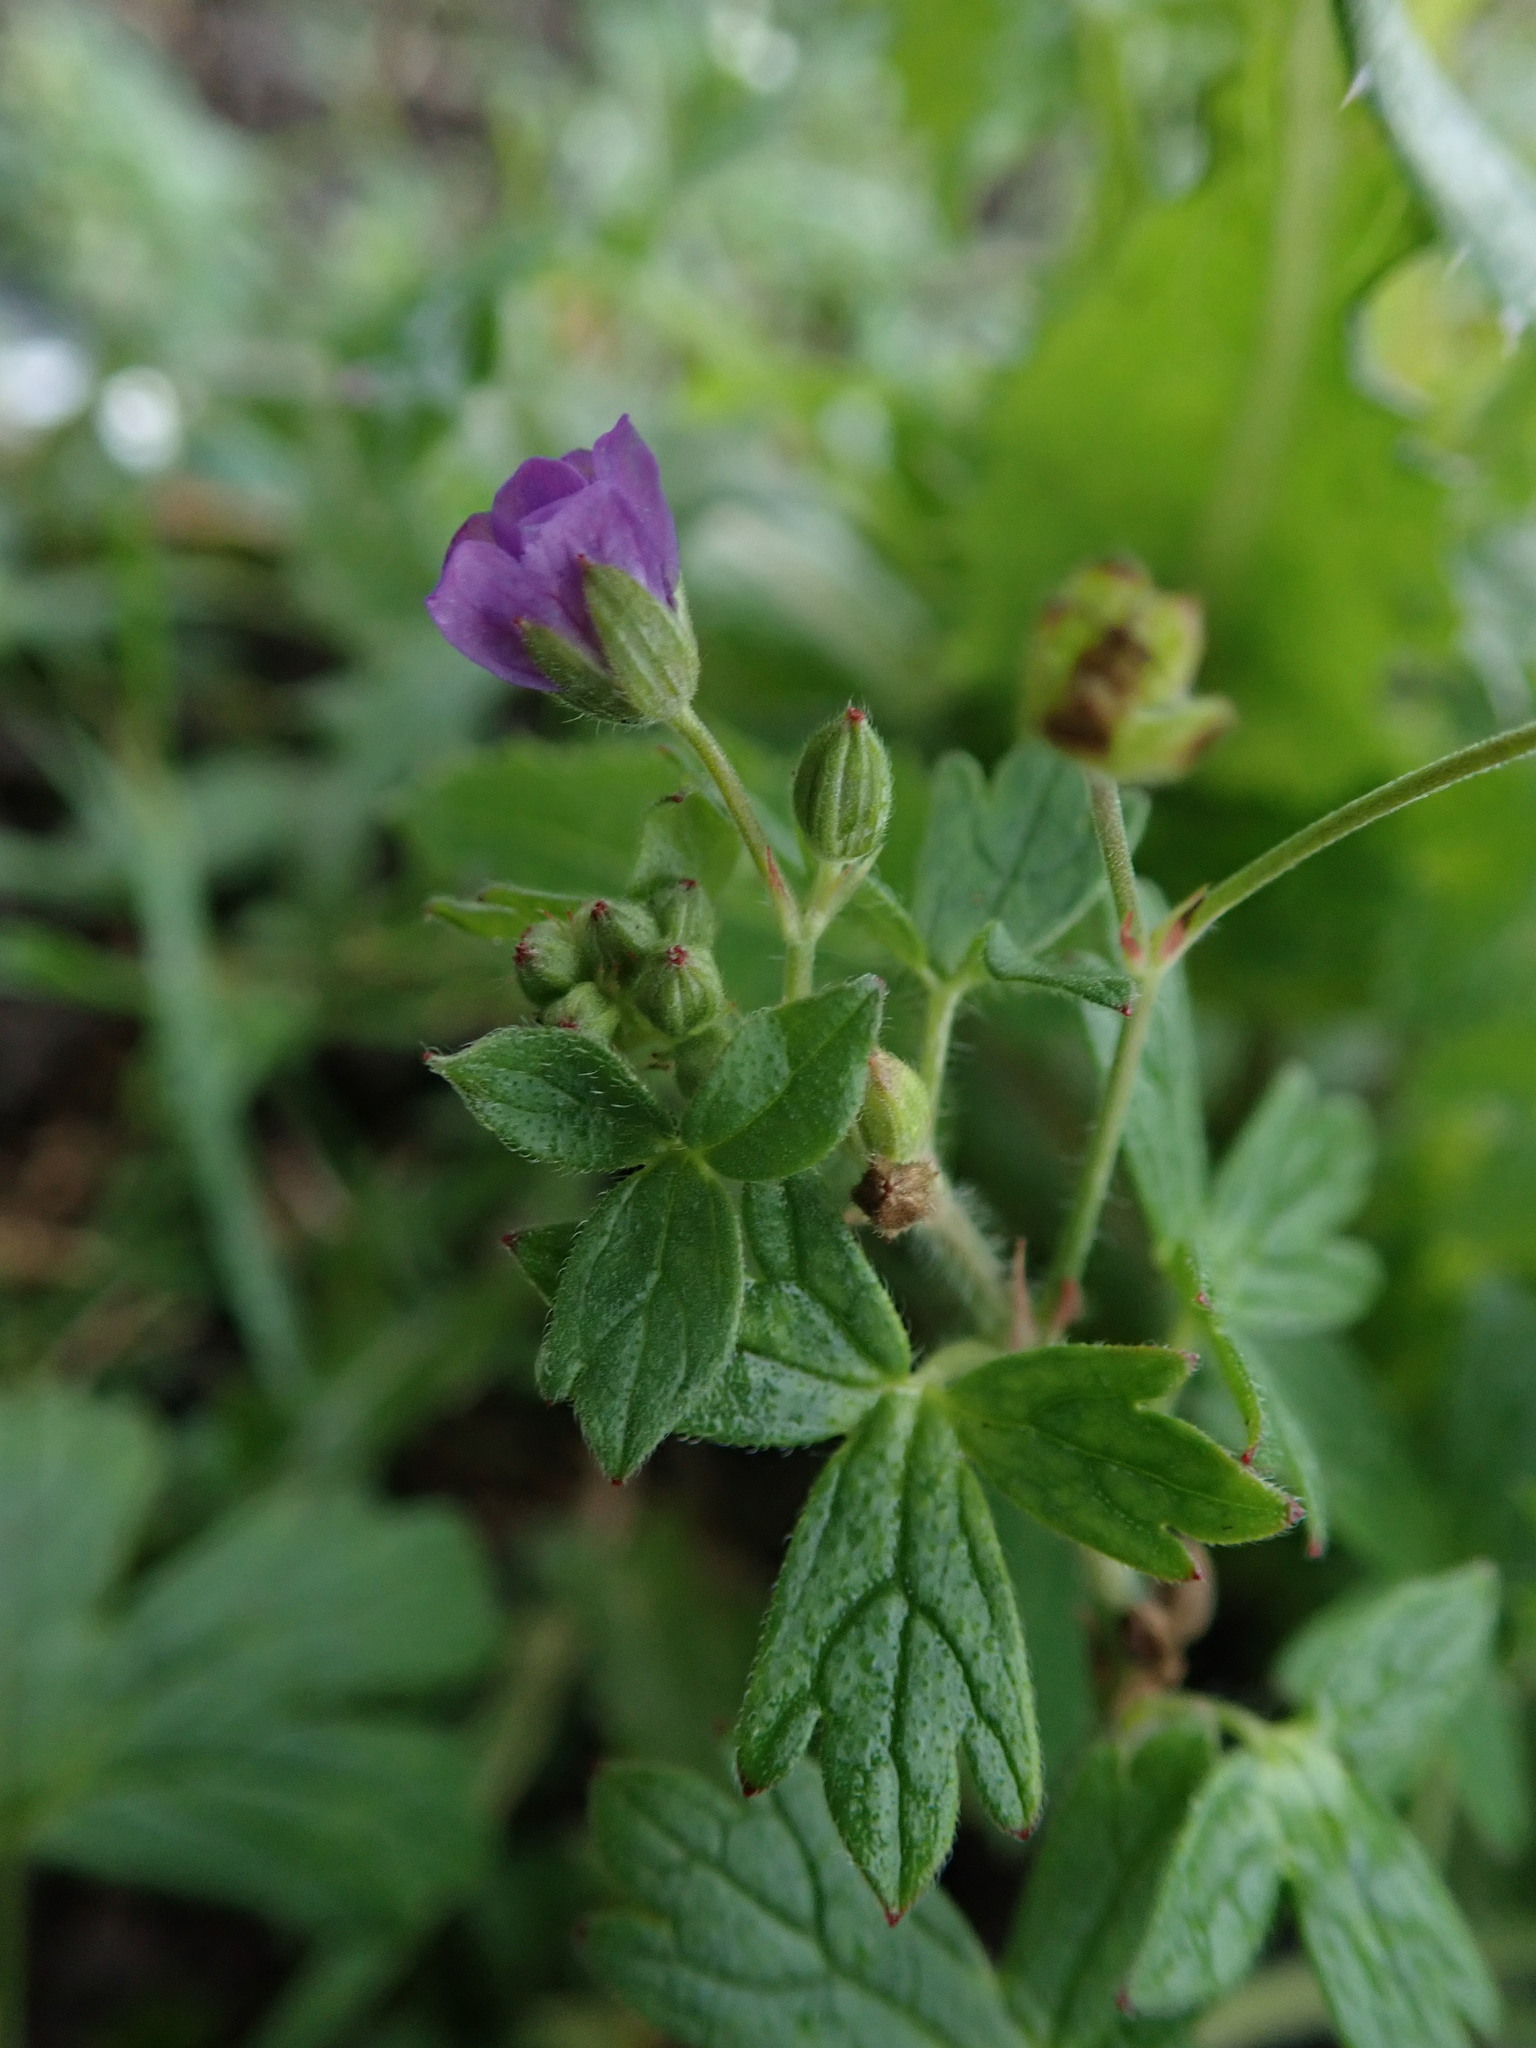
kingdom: Plantae
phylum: Tracheophyta
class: Magnoliopsida
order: Geraniales
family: Geraniaceae
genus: Geranium
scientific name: Geranium pyrenaicum
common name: Hedgerow crane's-bill
